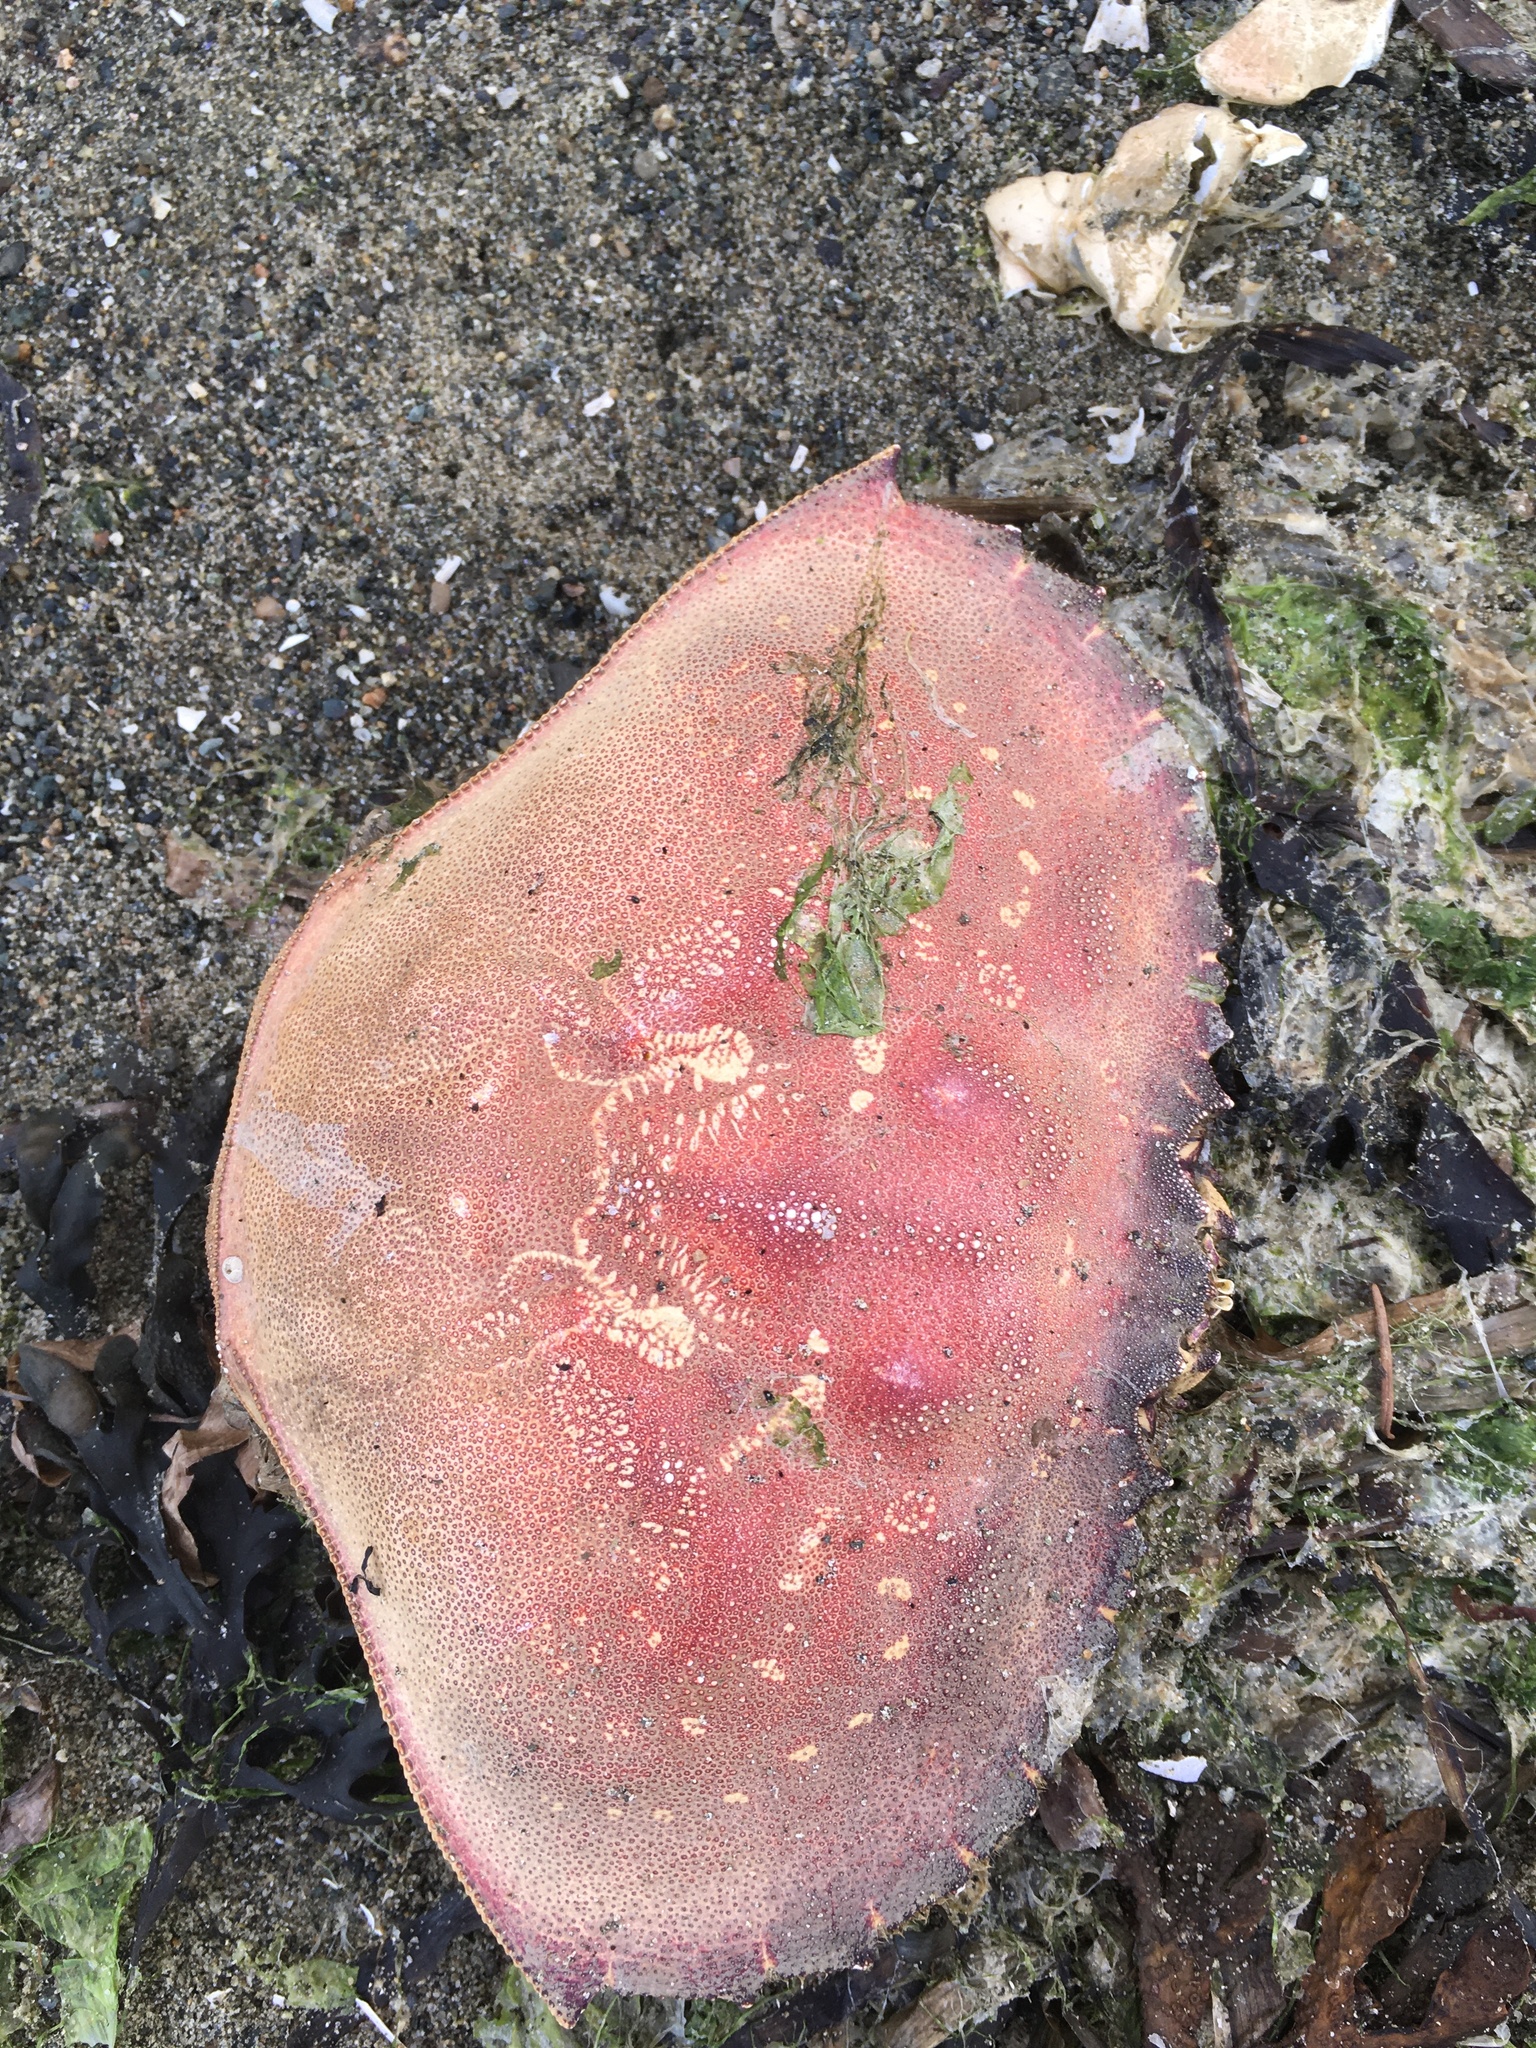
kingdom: Animalia
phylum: Arthropoda
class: Malacostraca
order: Decapoda
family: Cancridae
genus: Metacarcinus
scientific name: Metacarcinus magister
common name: Californian crab
